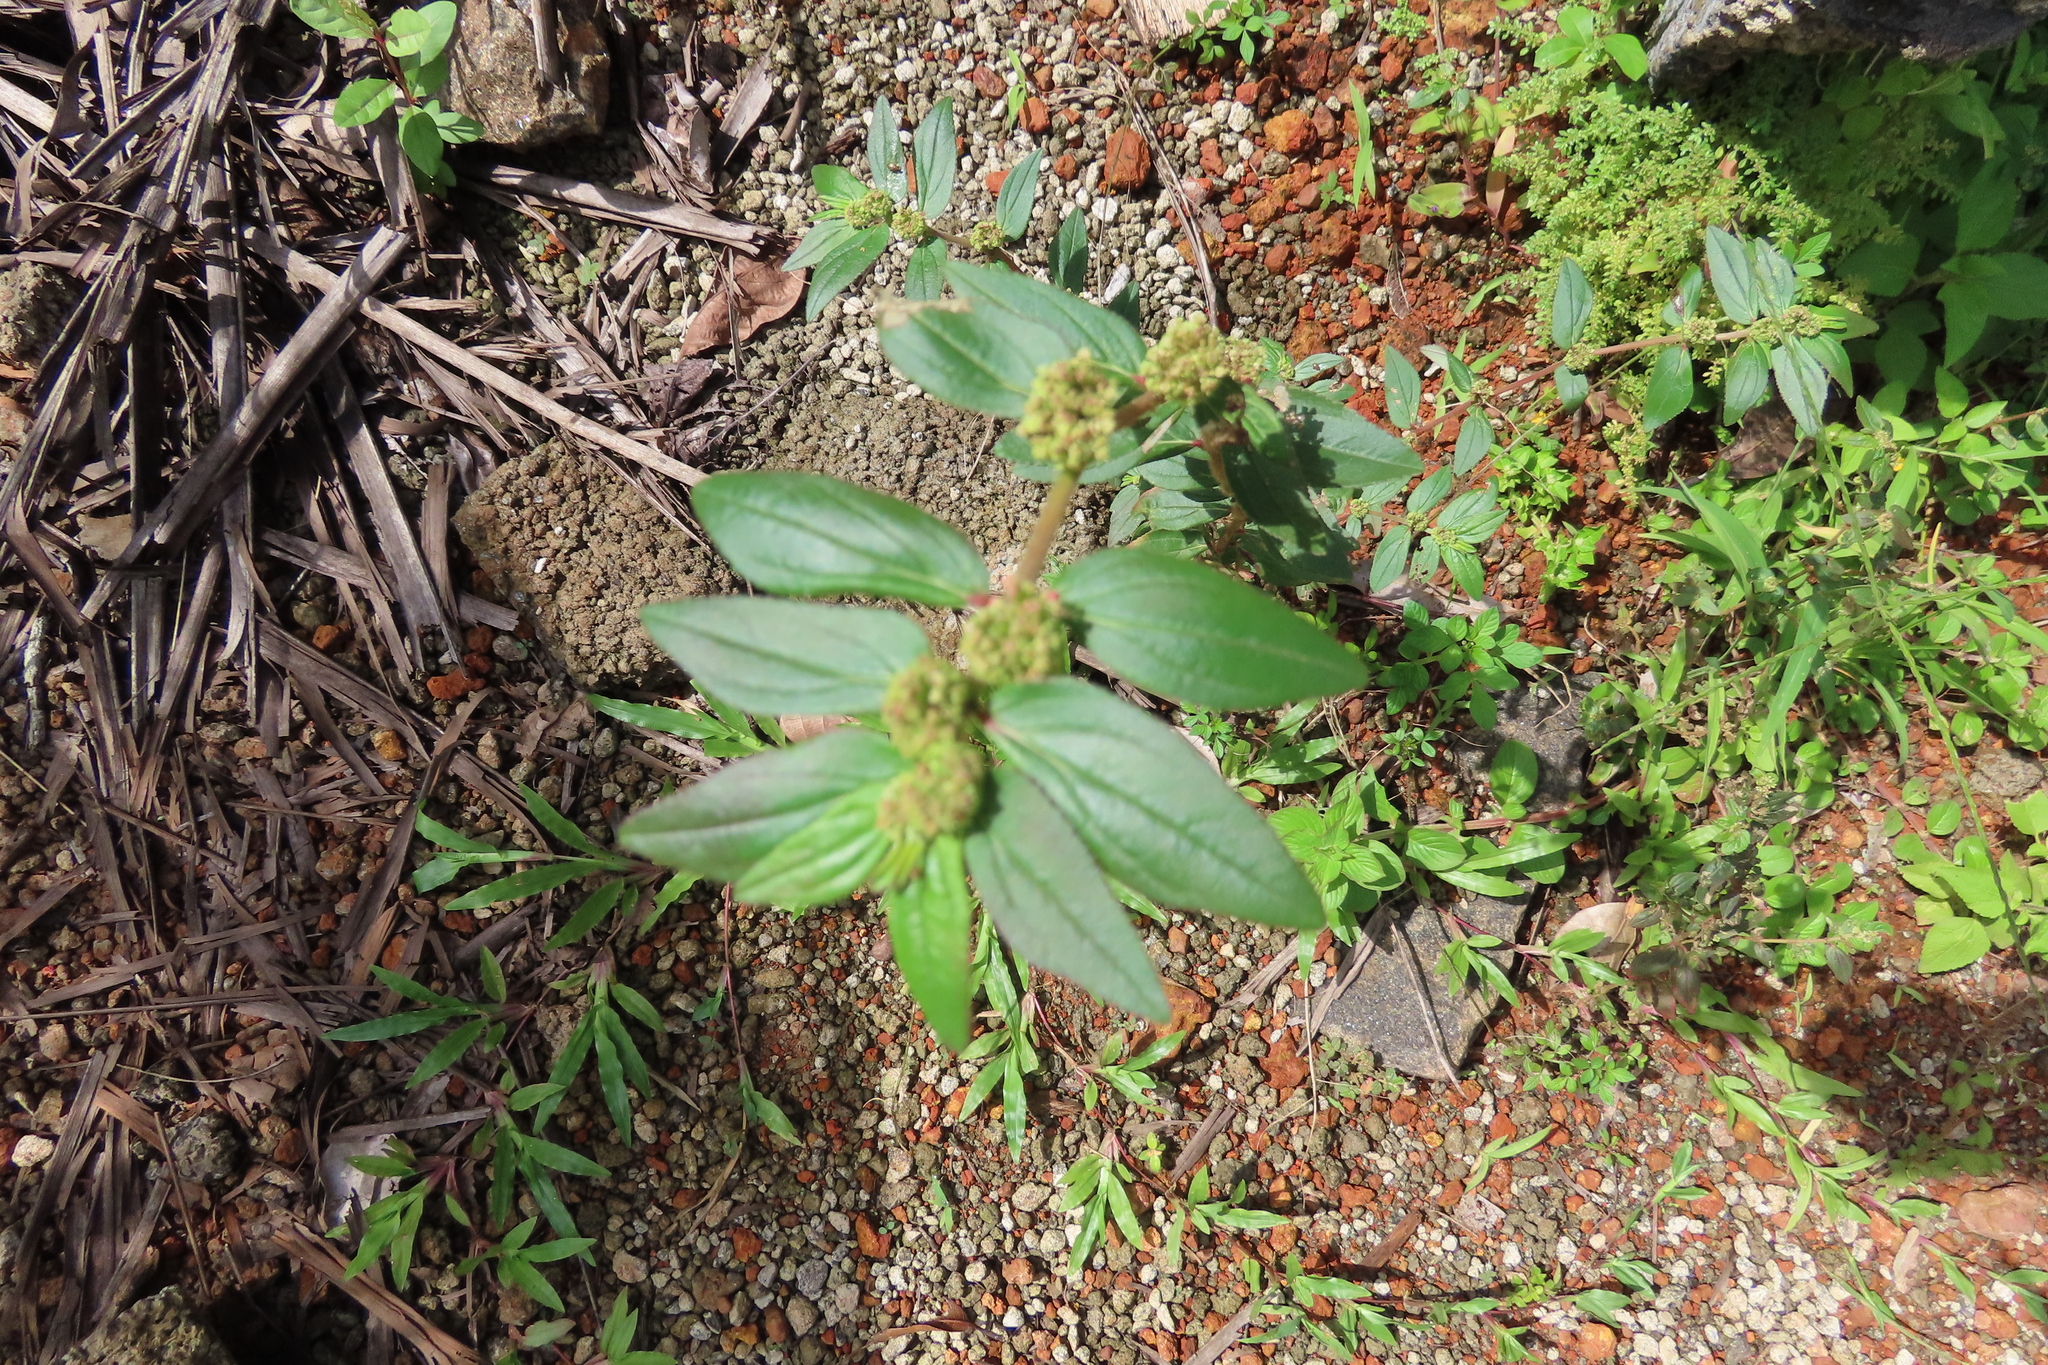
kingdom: Plantae
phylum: Tracheophyta
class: Magnoliopsida
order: Malpighiales
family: Euphorbiaceae
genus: Euphorbia
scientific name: Euphorbia hirta
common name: Pillpod sandmat
